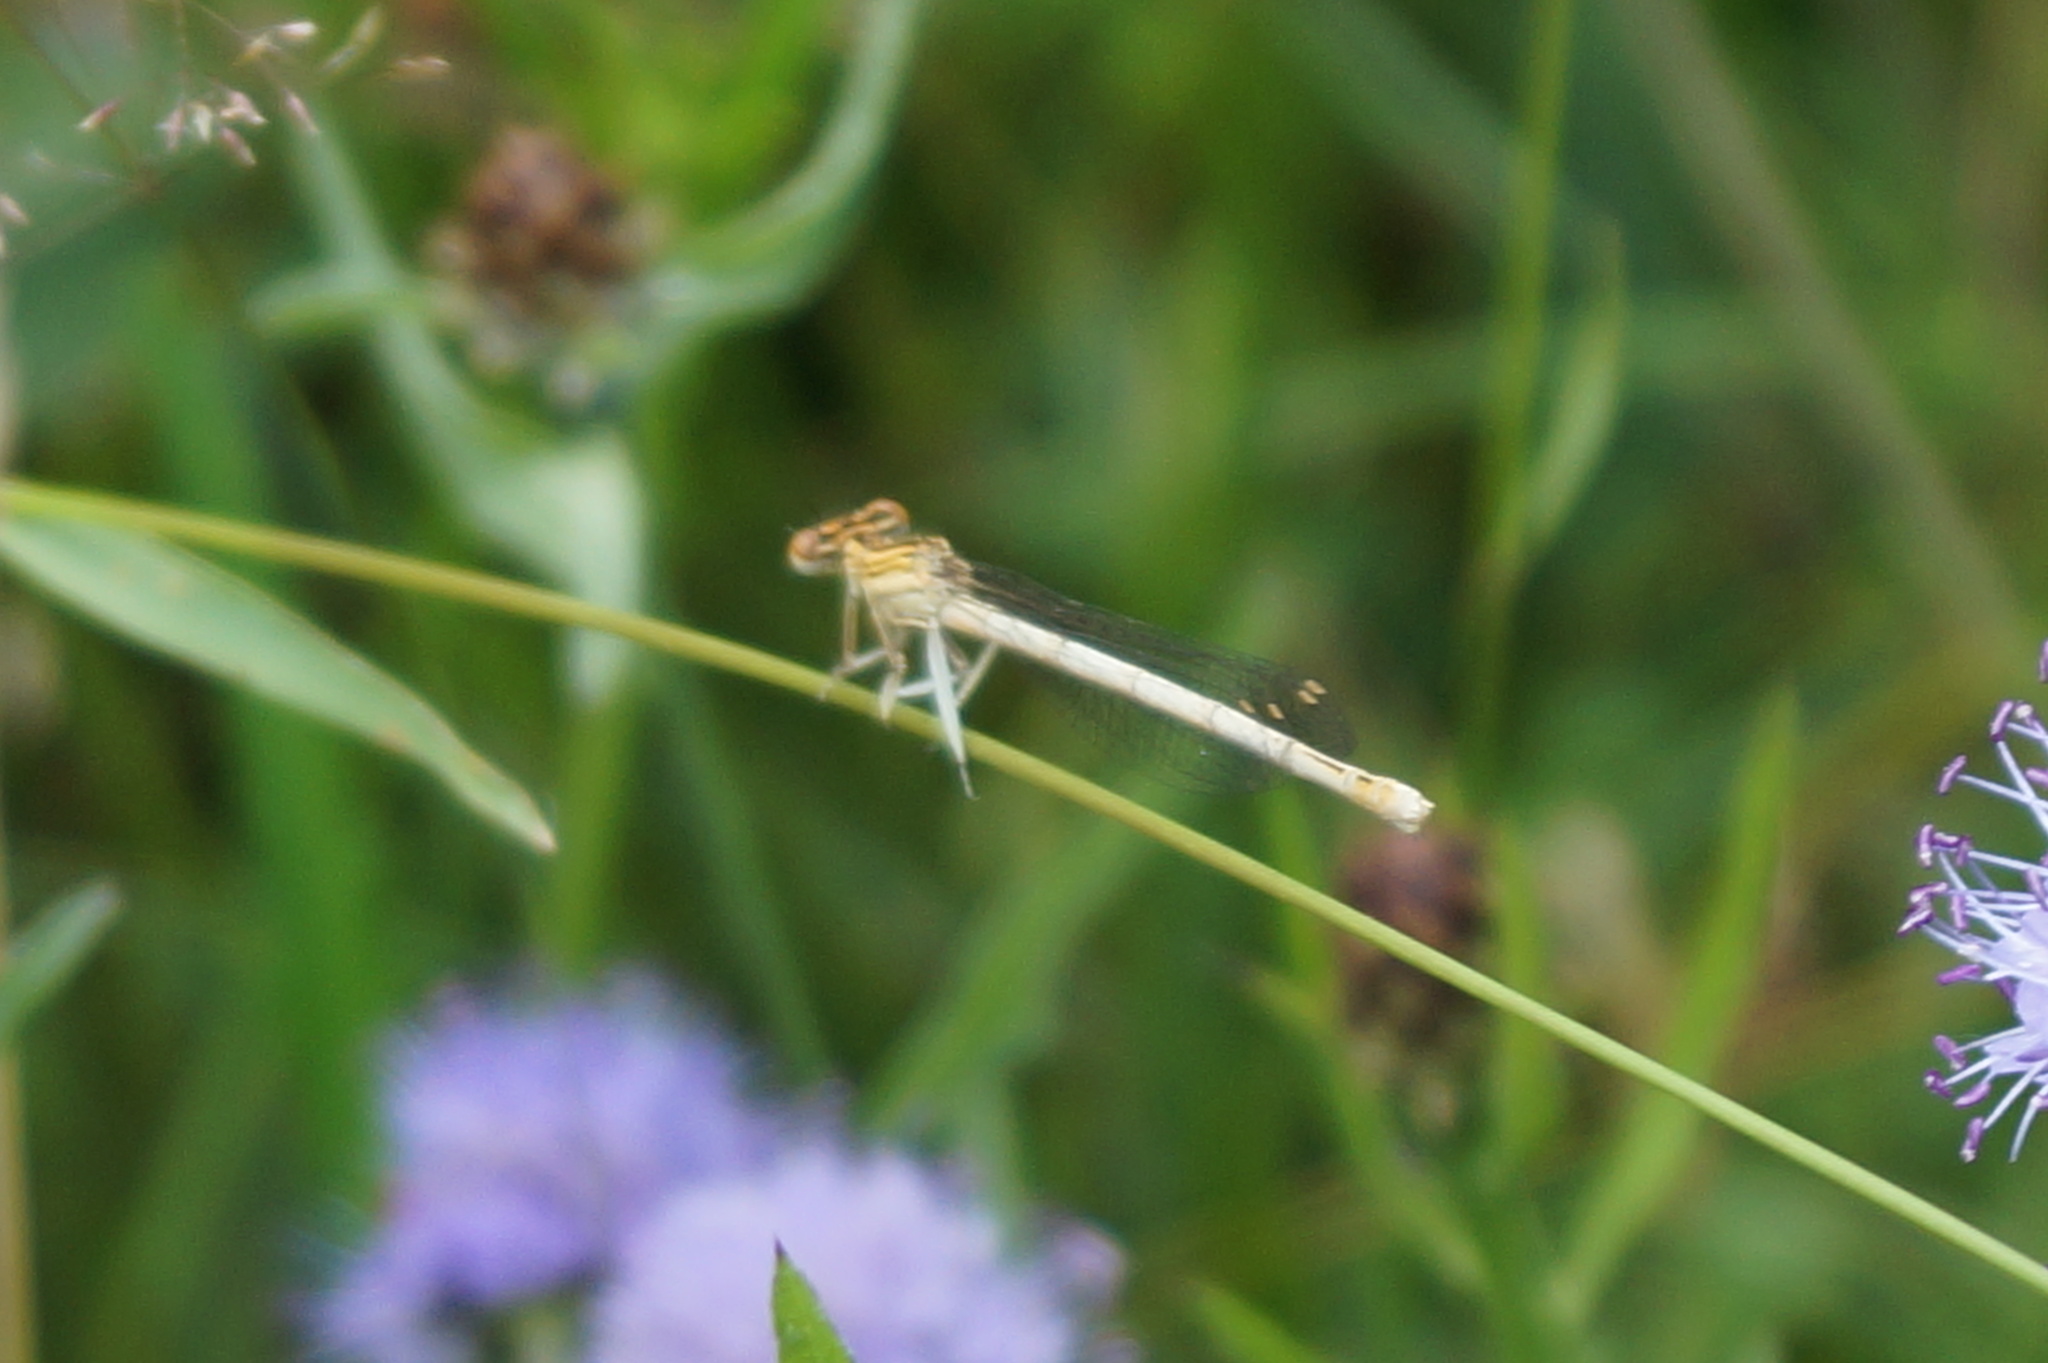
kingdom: Animalia
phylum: Arthropoda
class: Insecta
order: Odonata
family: Platycnemididae
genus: Platycnemis
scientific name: Platycnemis pennipes
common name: White-legged damselfly
